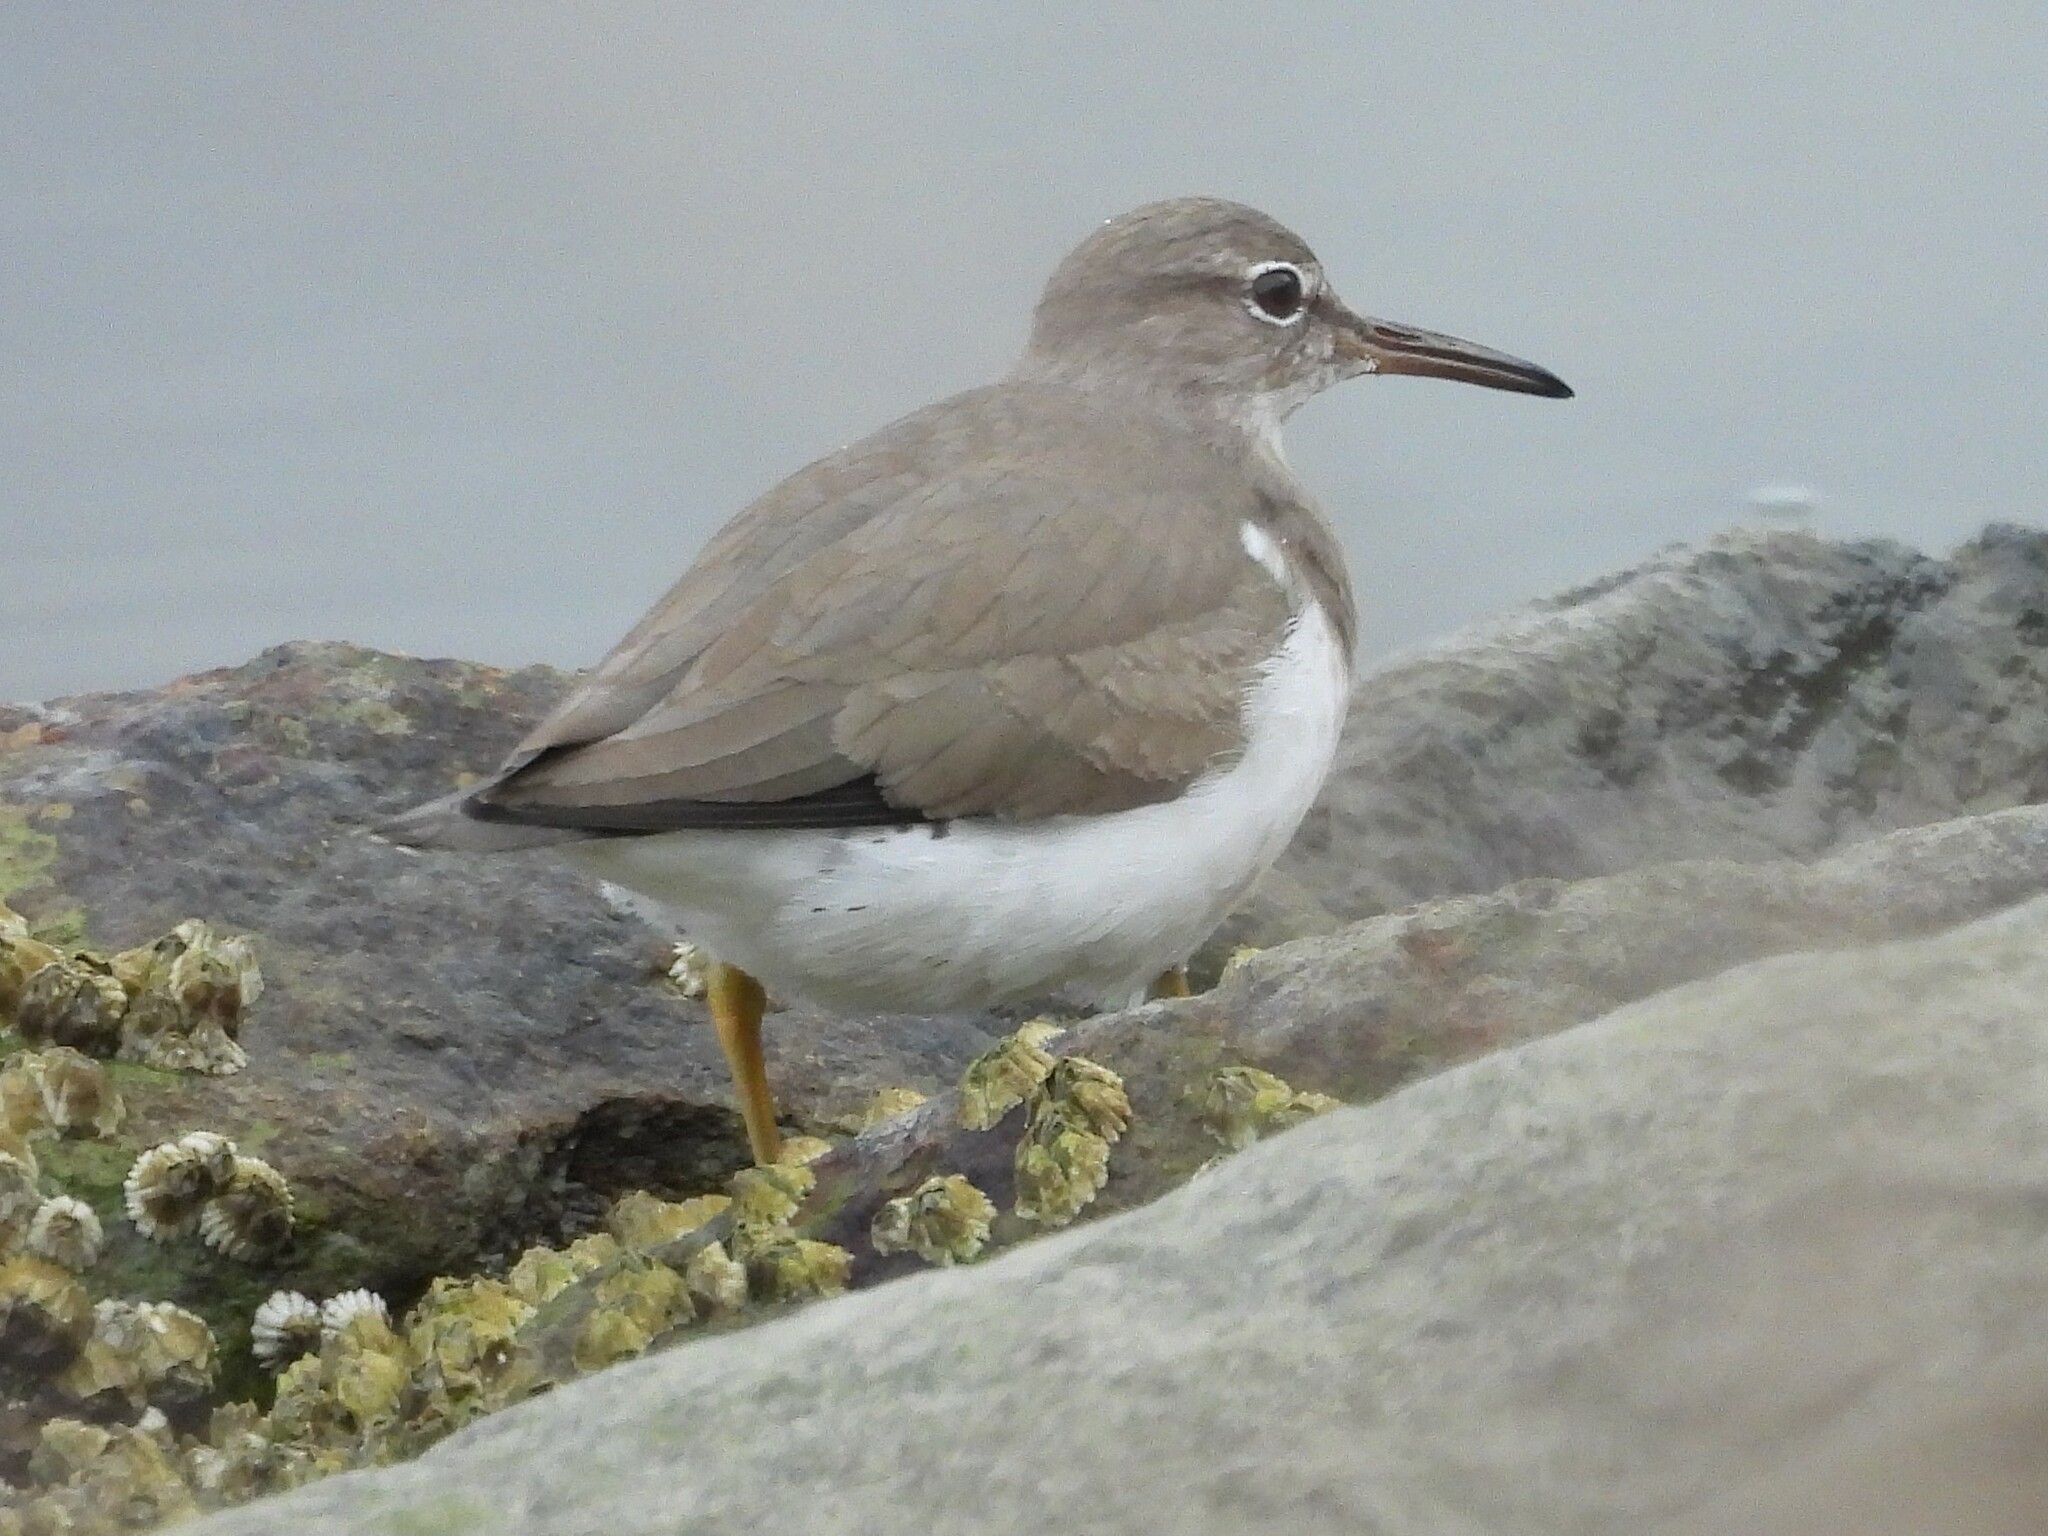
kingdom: Animalia
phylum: Chordata
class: Aves
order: Charadriiformes
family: Scolopacidae
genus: Actitis
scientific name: Actitis macularius
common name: Spotted sandpiper
